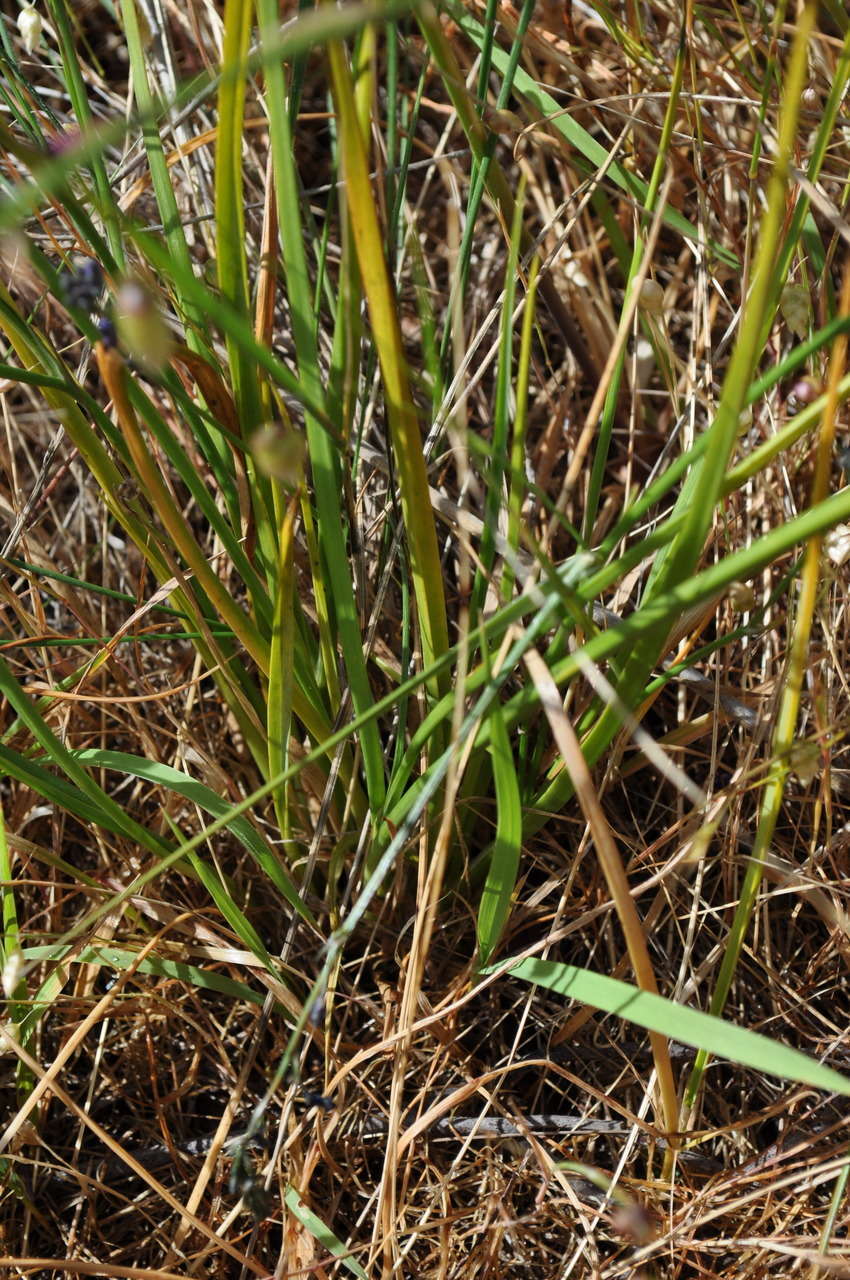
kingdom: Plantae
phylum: Tracheophyta
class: Liliopsida
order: Asparagales
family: Asphodelaceae
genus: Caesia
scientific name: Caesia calliantha
